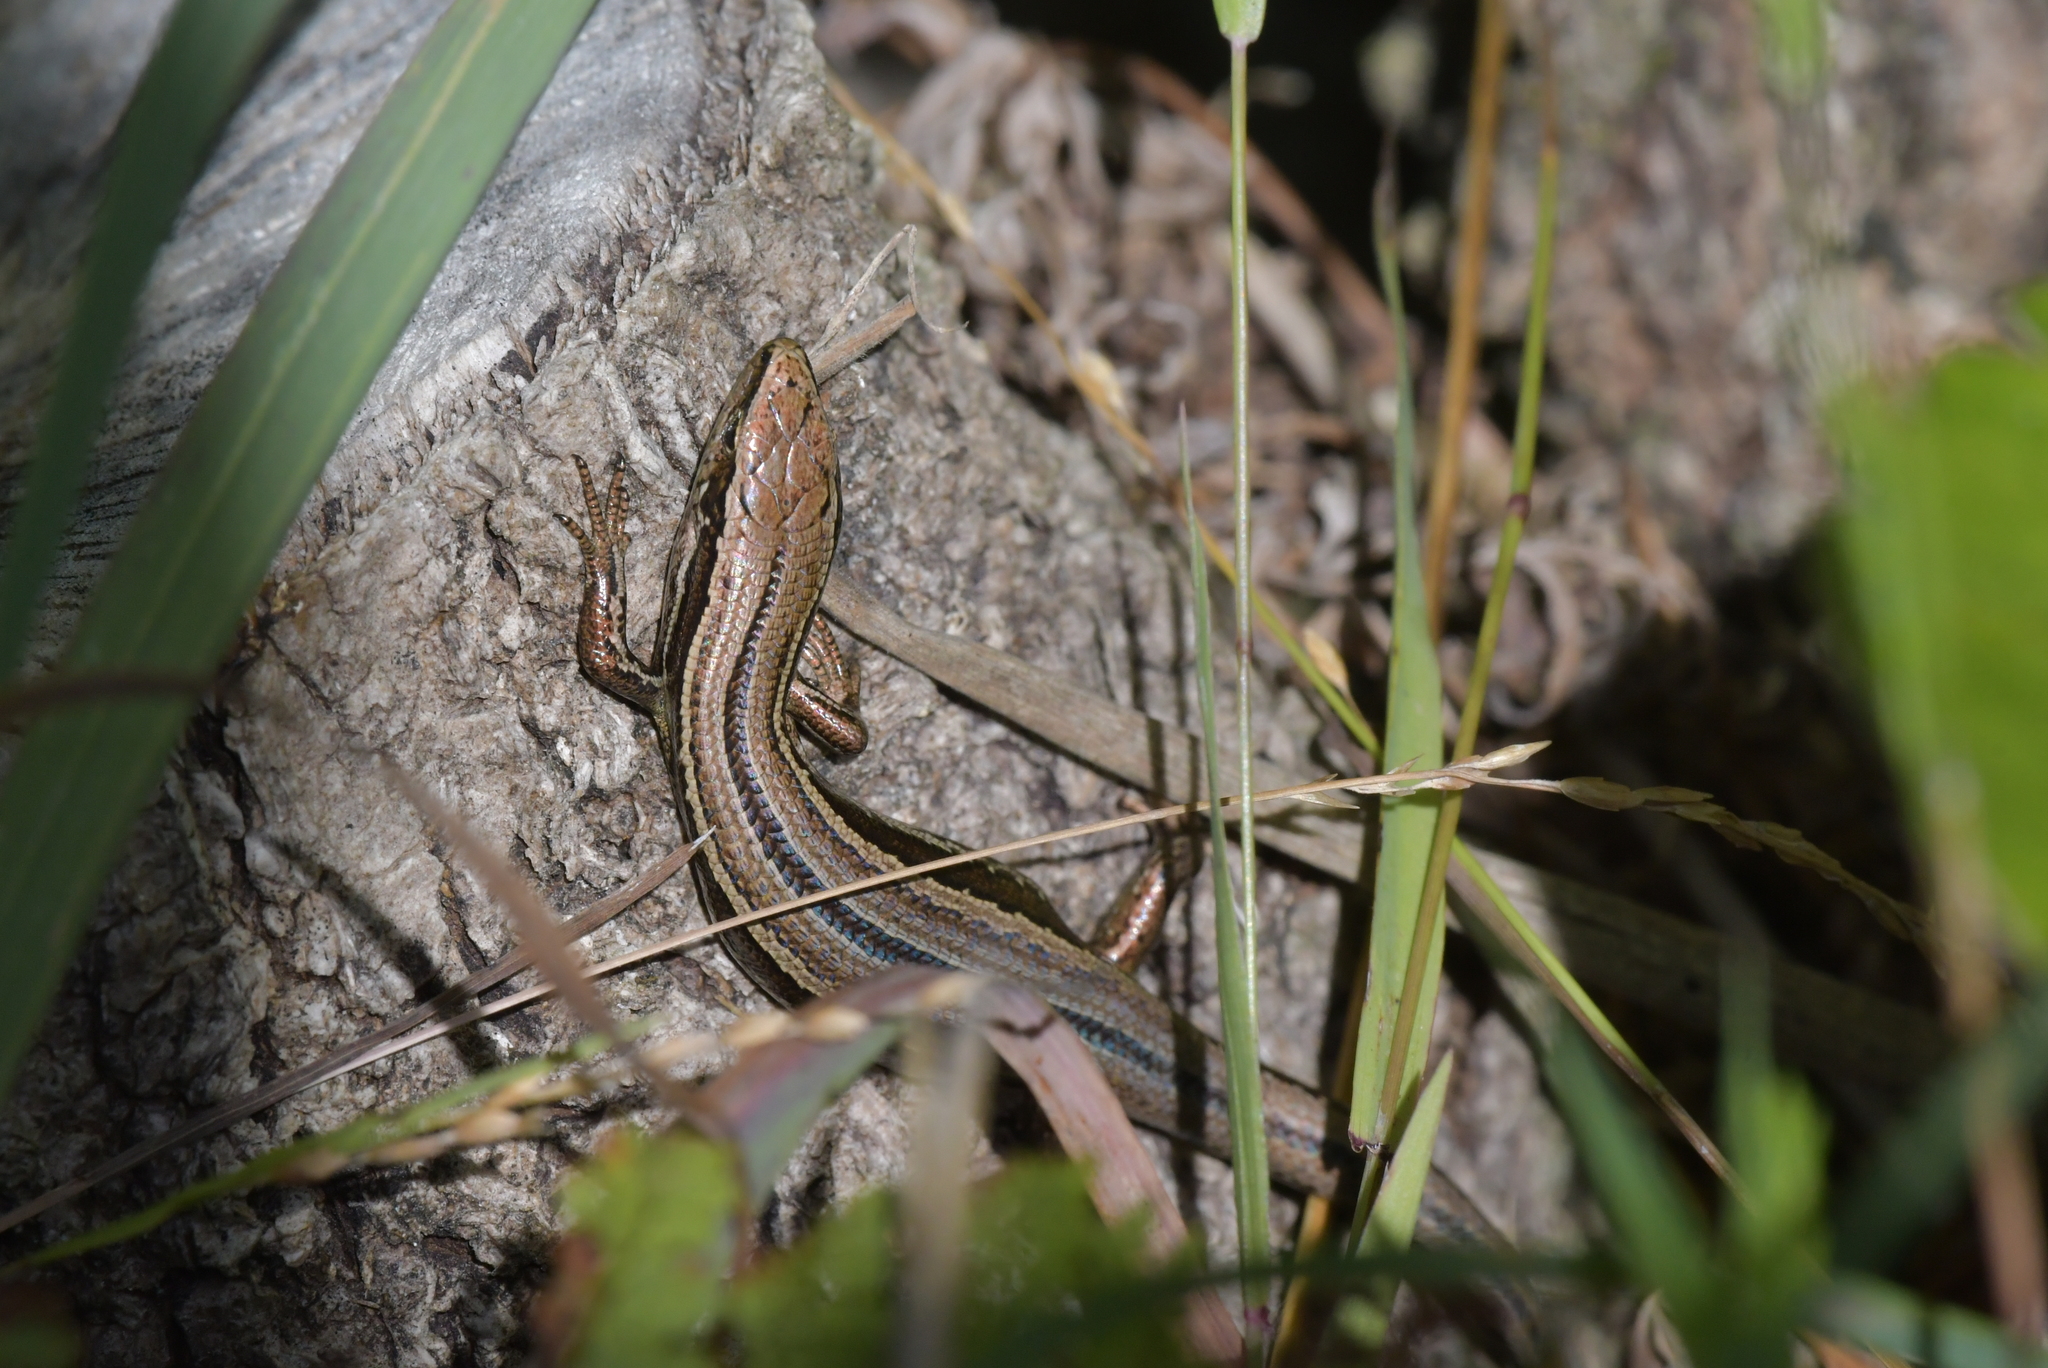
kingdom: Animalia
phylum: Chordata
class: Squamata
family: Scincidae
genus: Oligosoma
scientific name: Oligosoma polychroma
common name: Common new zealand skink
